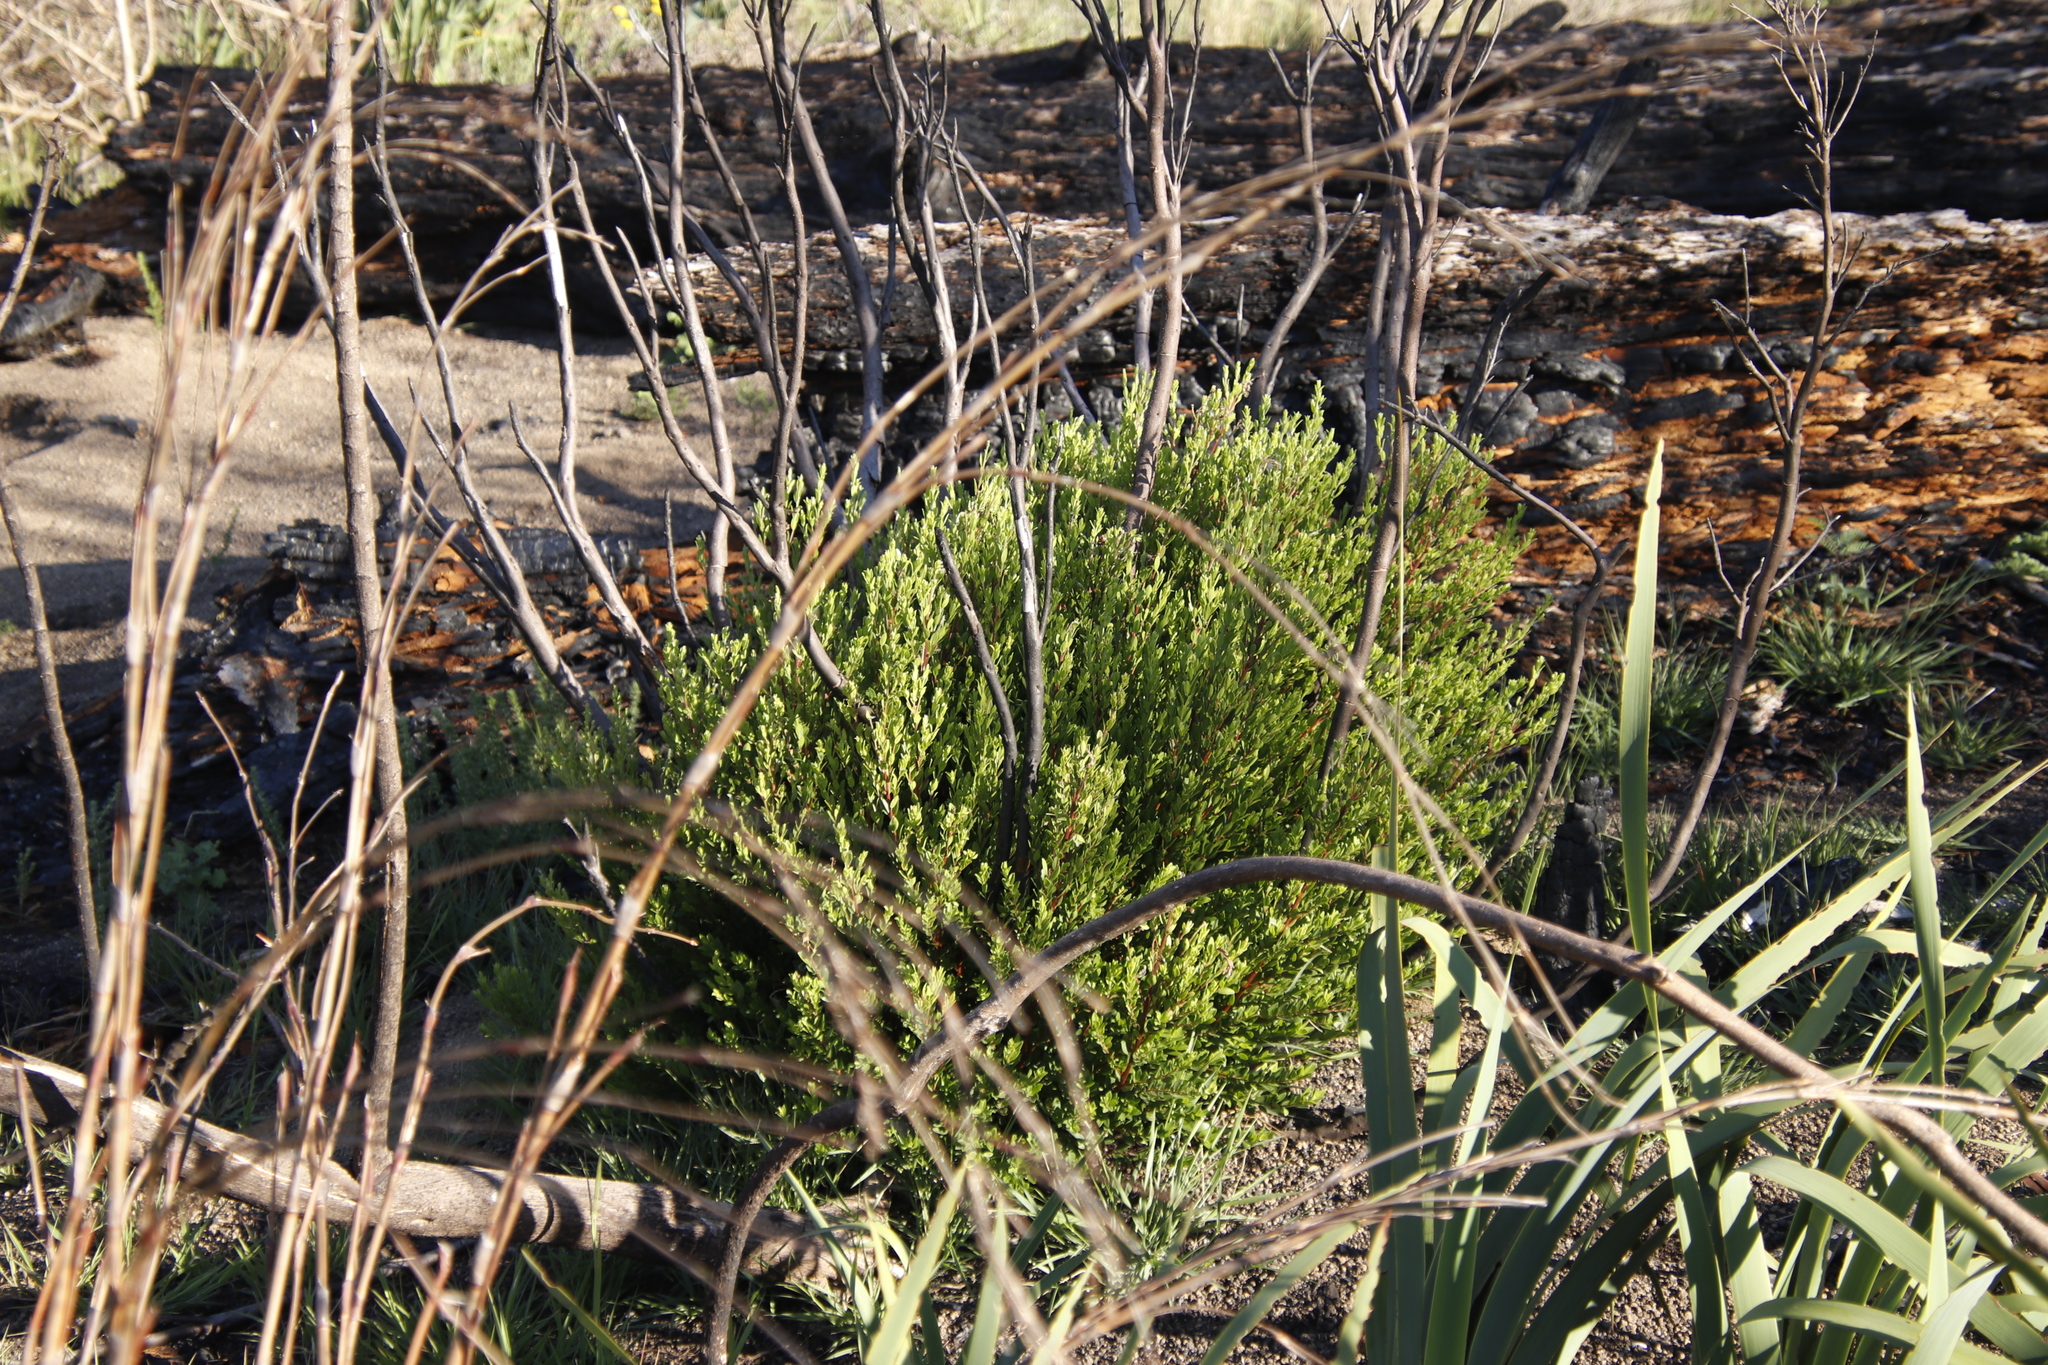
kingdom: Plantae
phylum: Tracheophyta
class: Magnoliopsida
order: Ericales
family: Ebenaceae
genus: Diospyros
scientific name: Diospyros glabra
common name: Fynbos star apple
